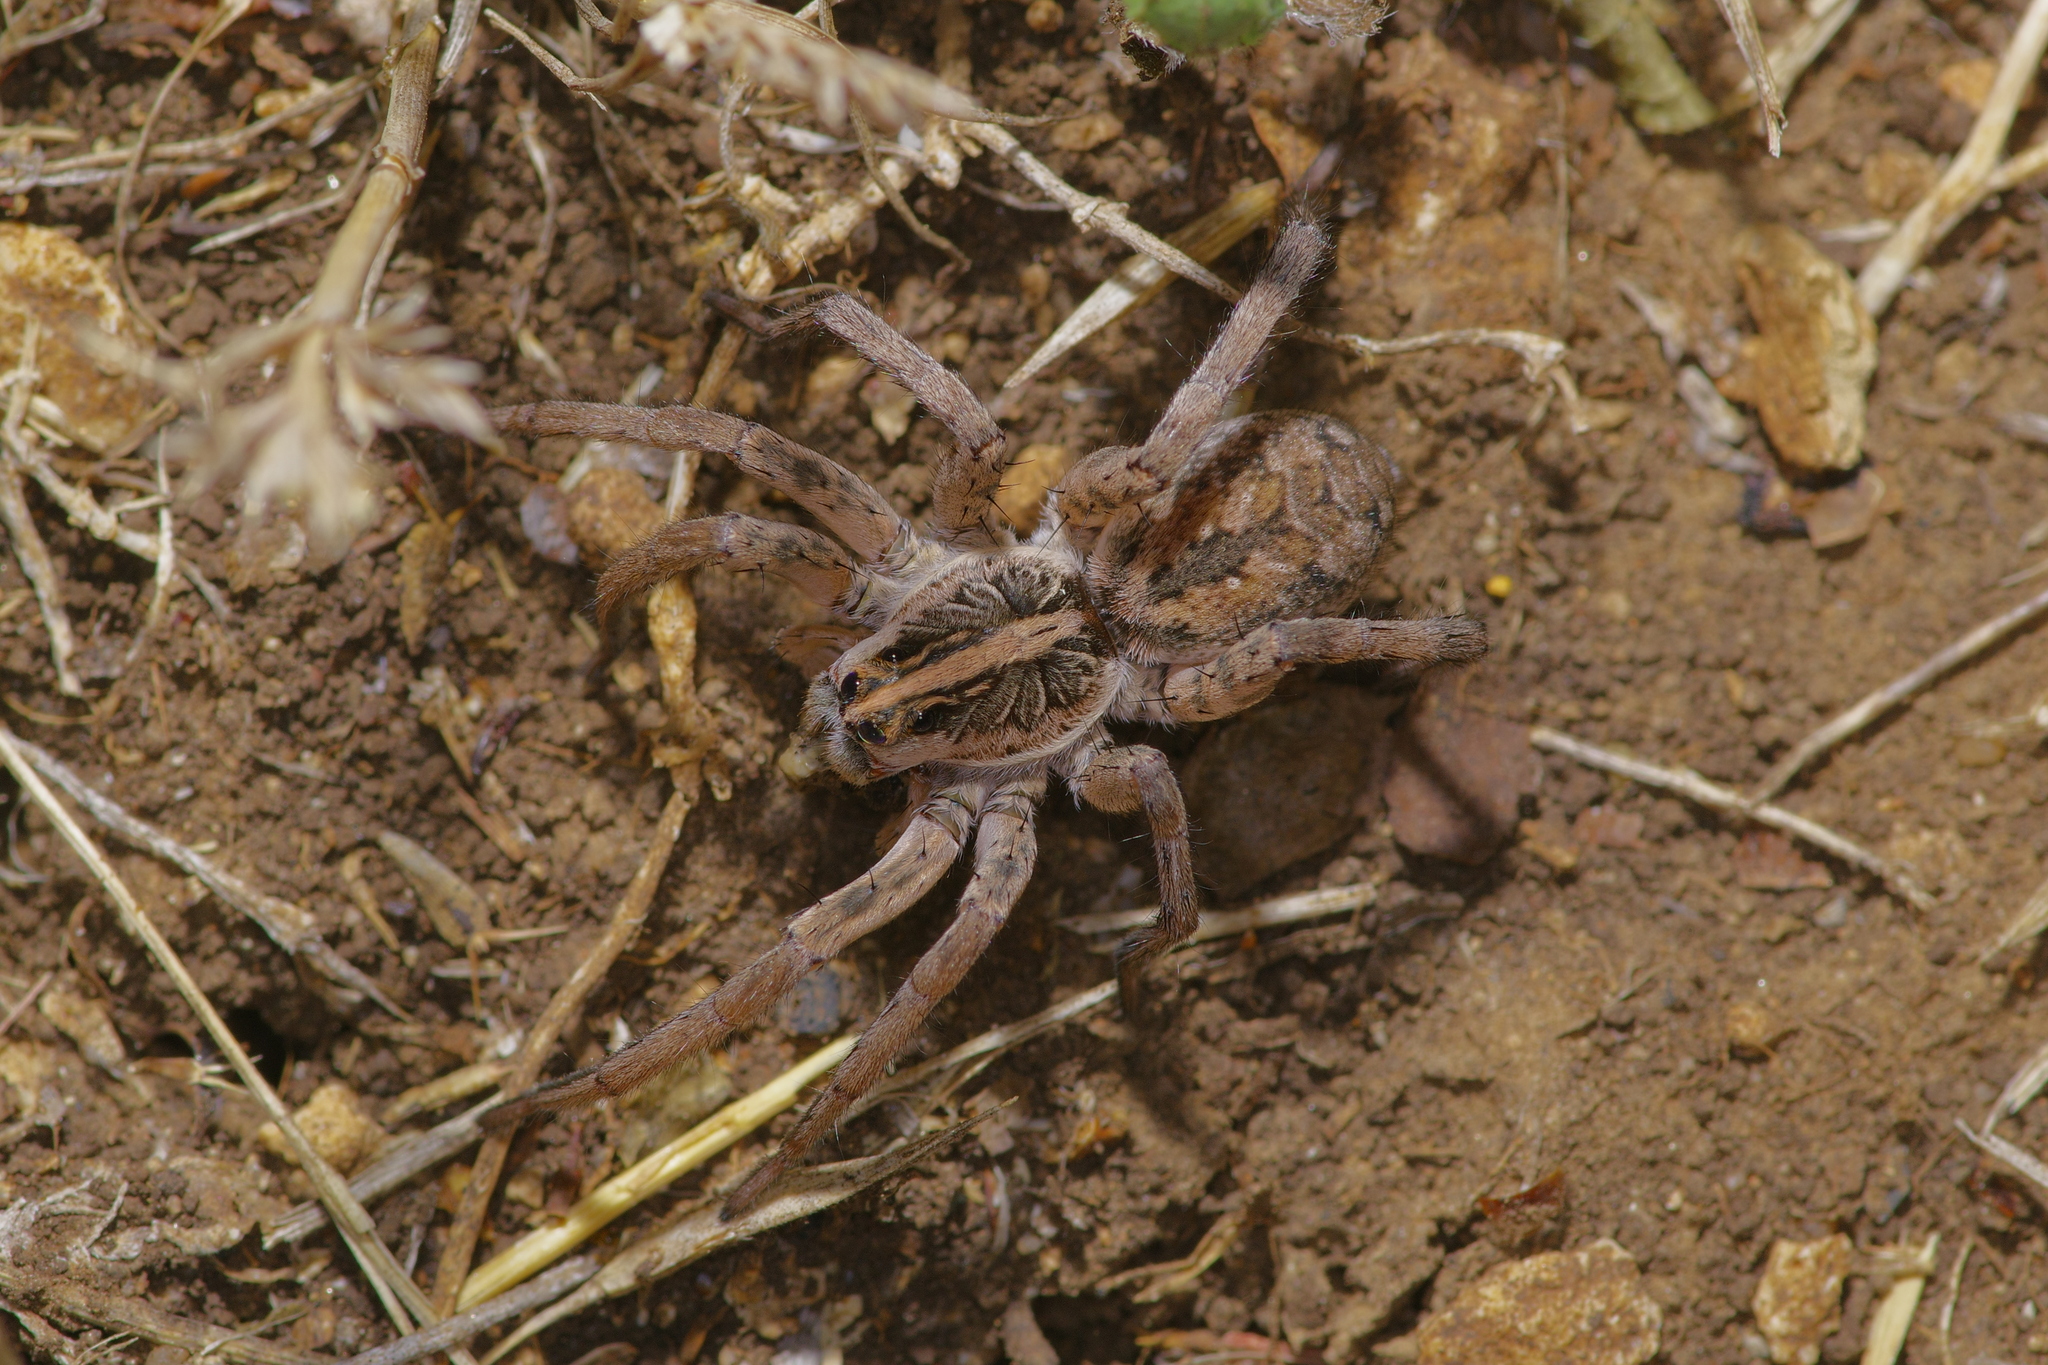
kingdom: Animalia
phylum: Arthropoda
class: Arachnida
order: Araneae
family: Lycosidae
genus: Hogna
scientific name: Hogna antelucana
